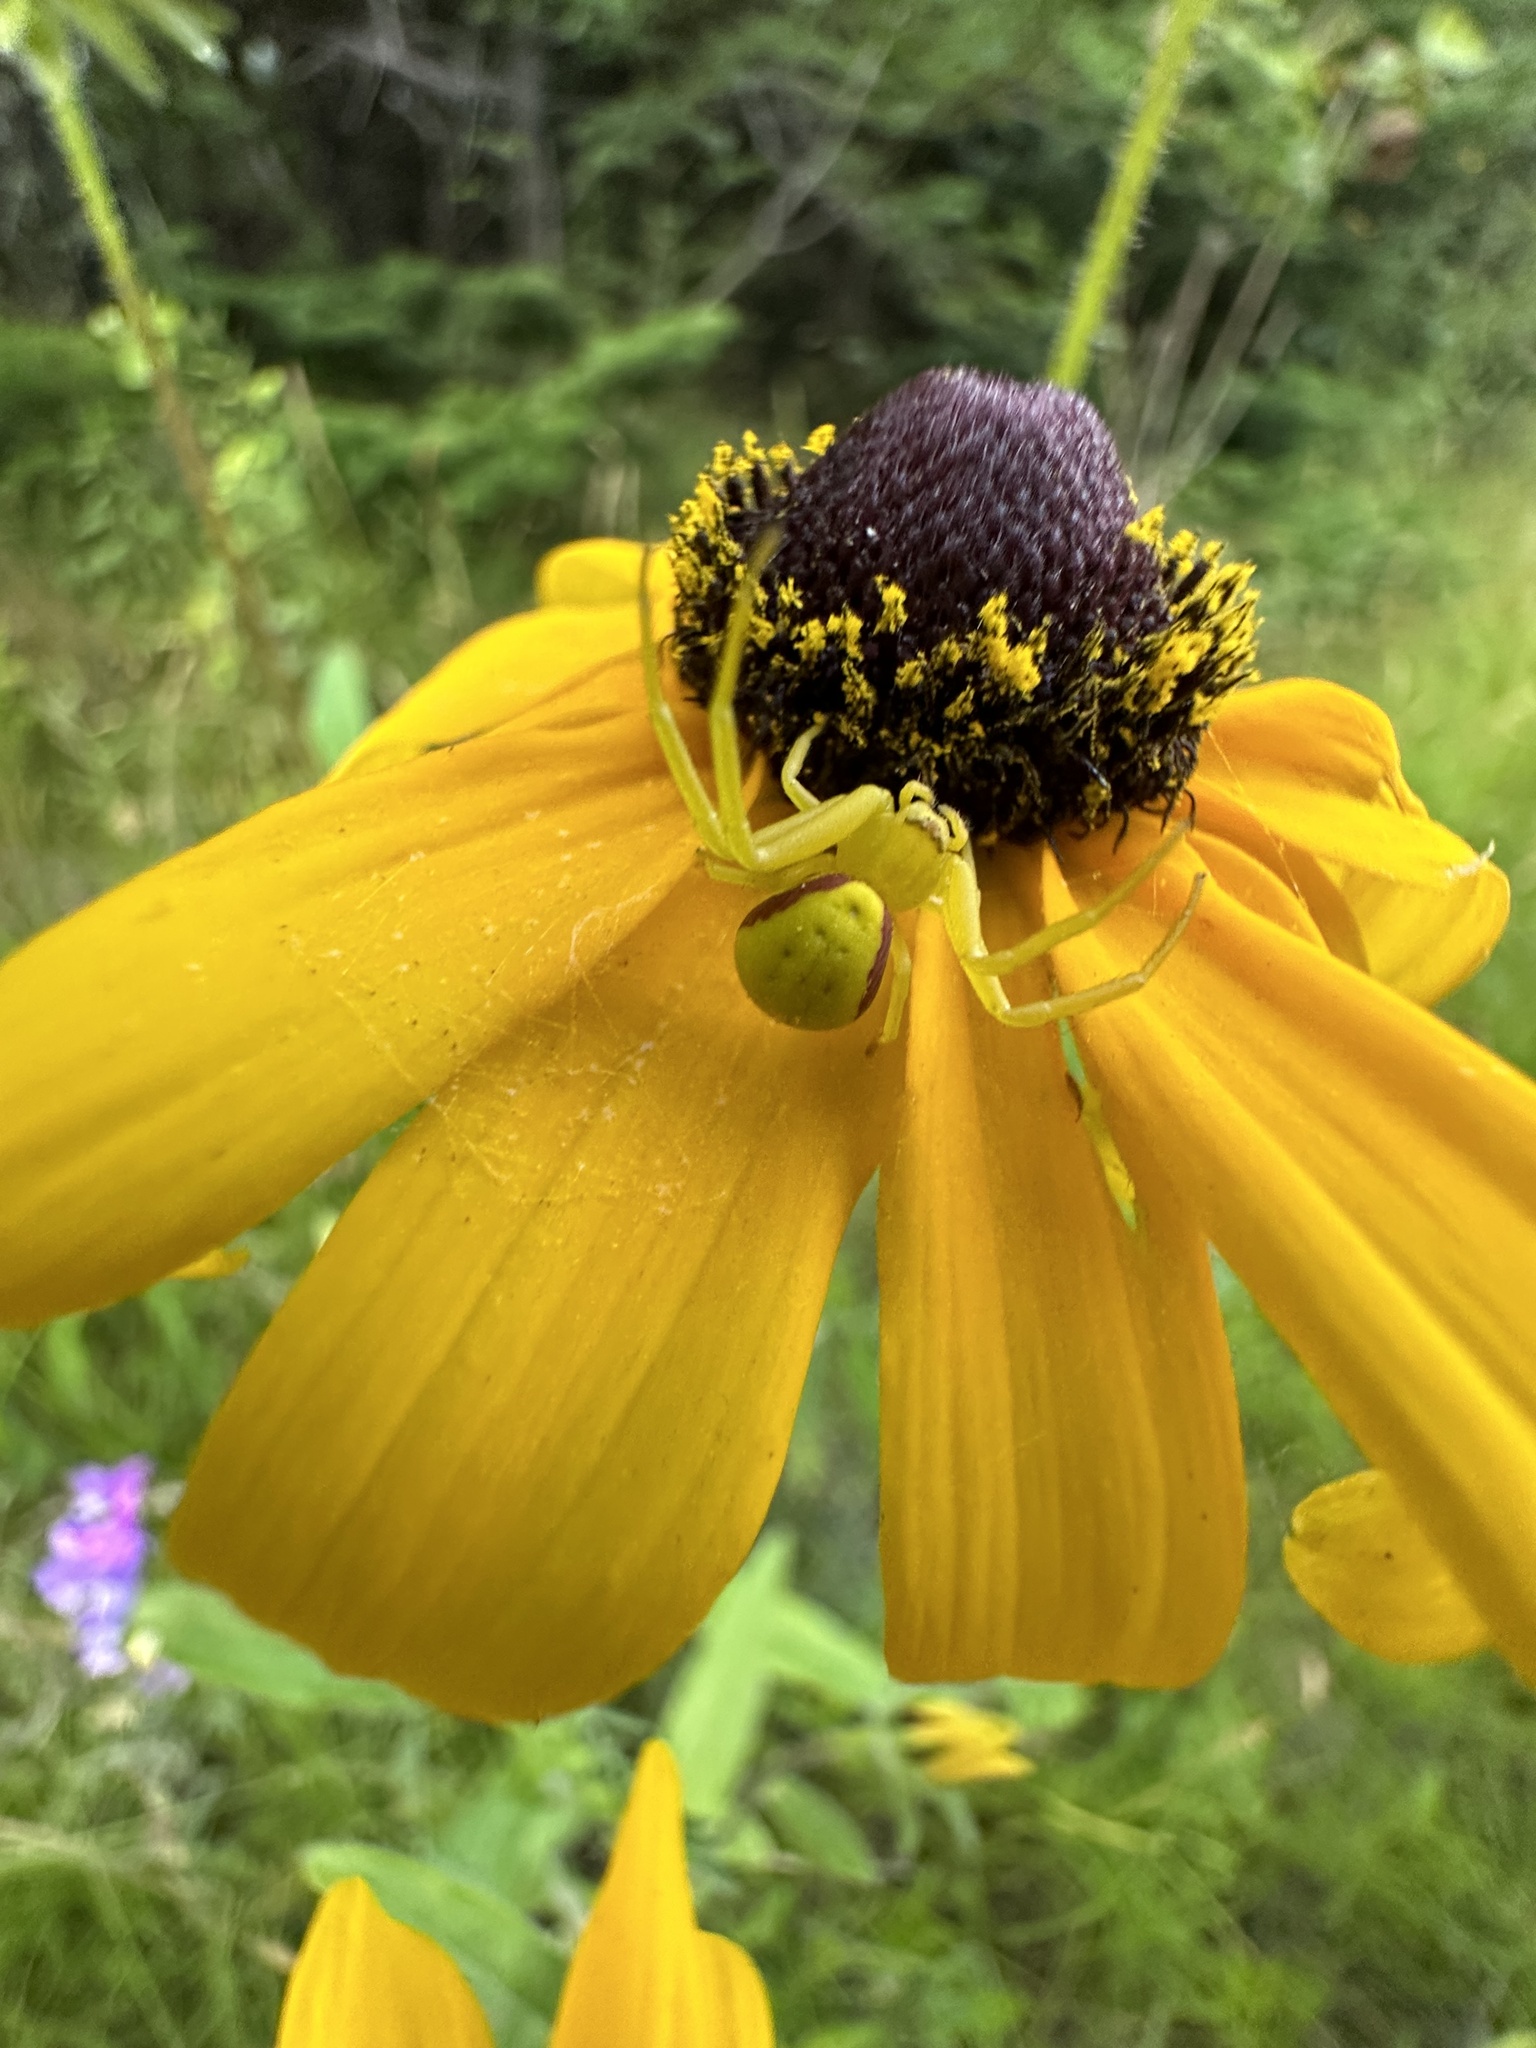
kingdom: Animalia
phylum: Arthropoda
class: Arachnida
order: Araneae
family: Thomisidae
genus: Misumena
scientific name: Misumena vatia
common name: Goldenrod crab spider
